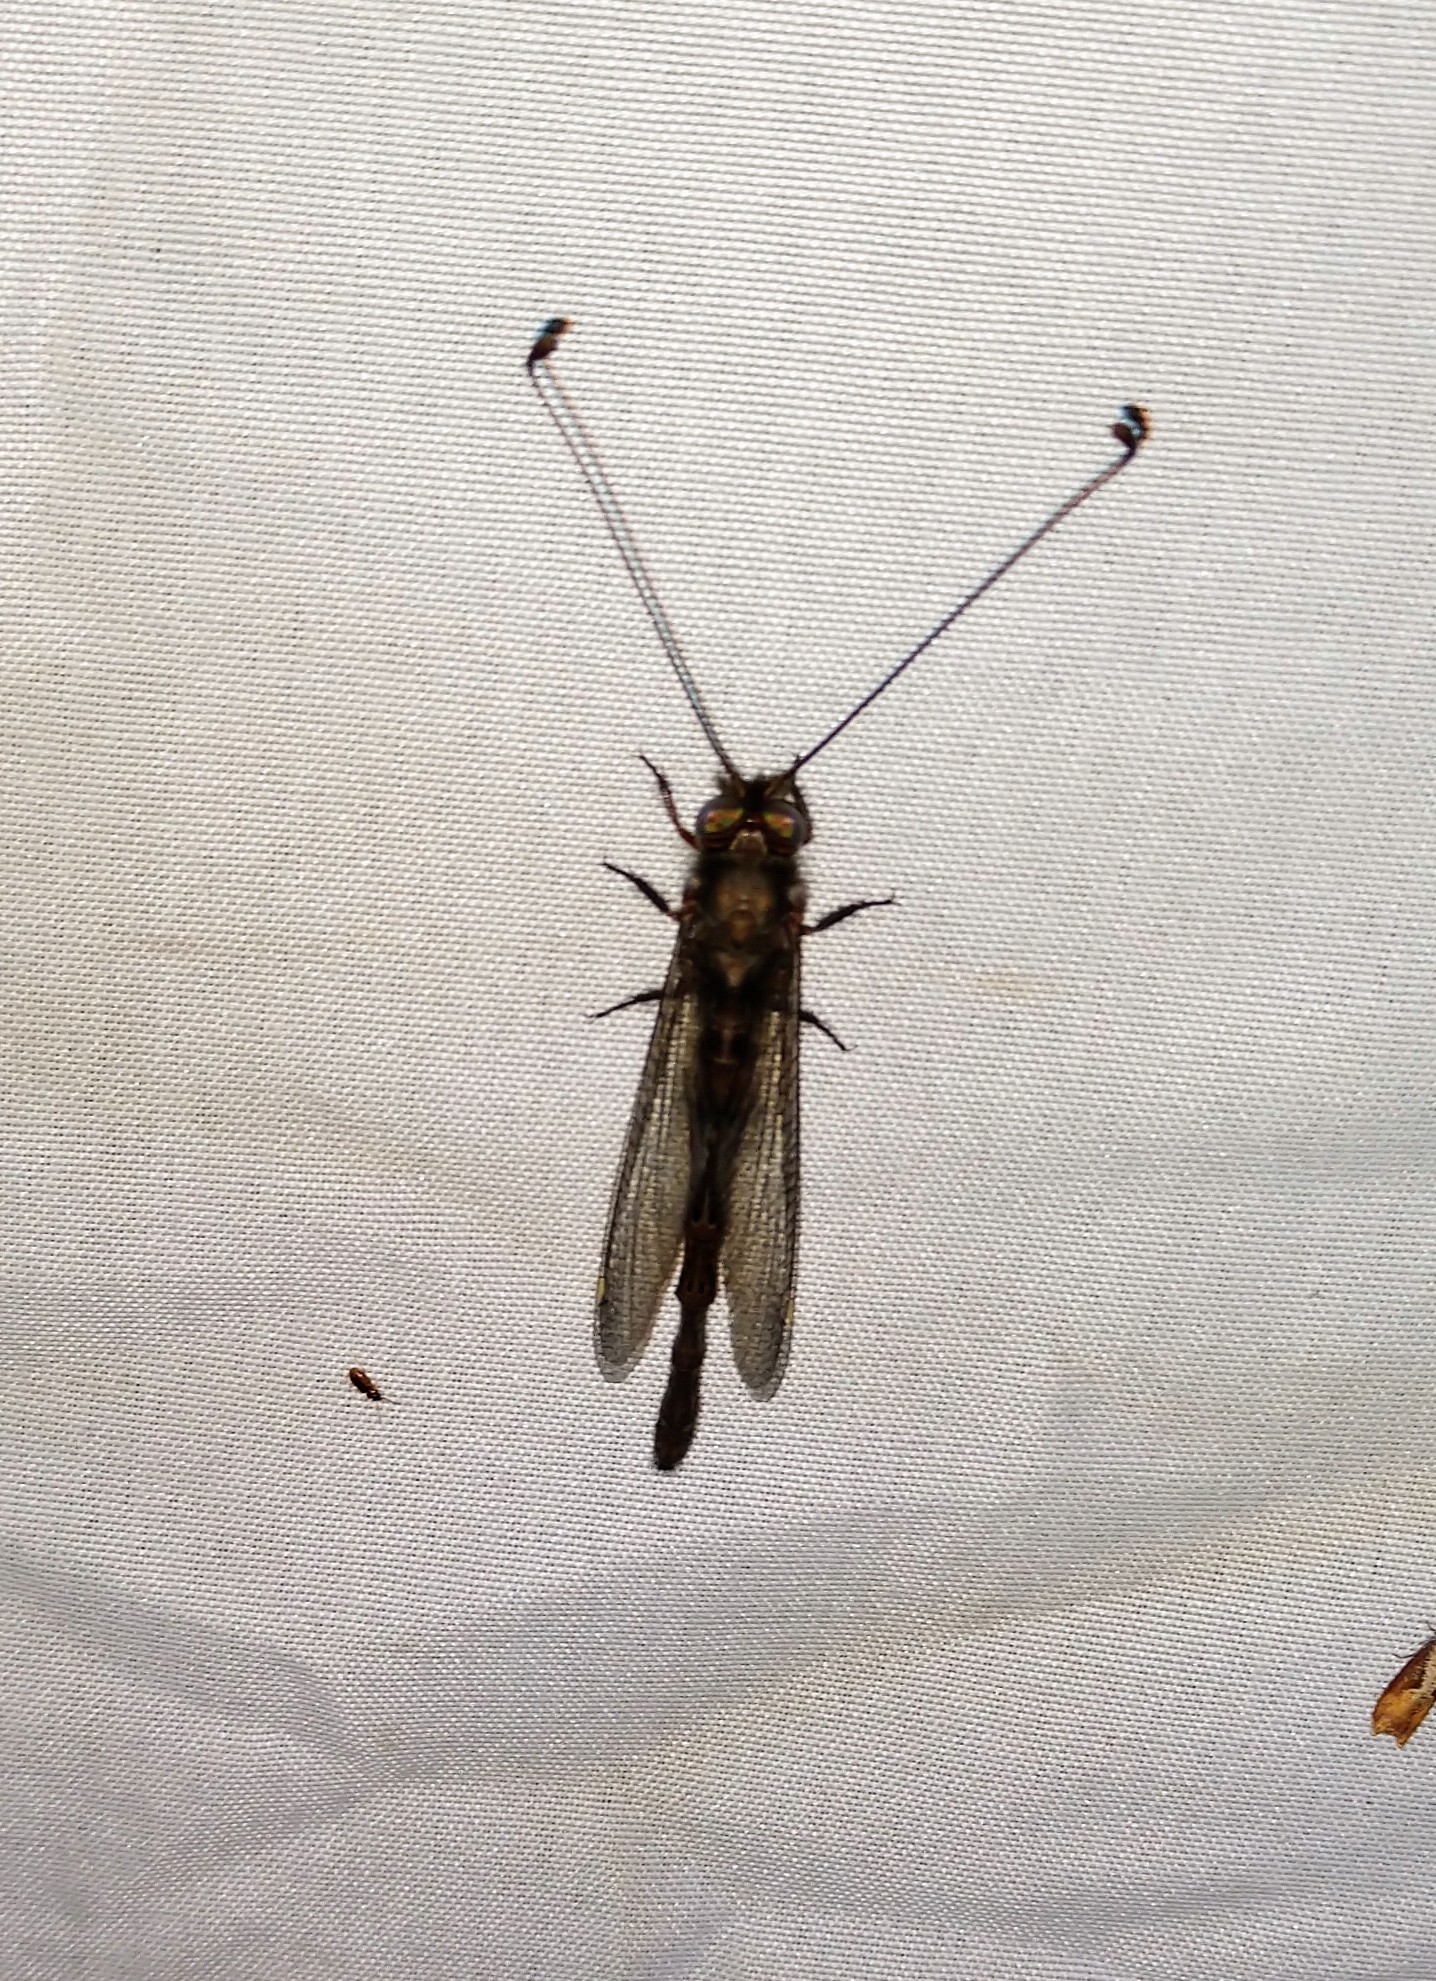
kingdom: Animalia
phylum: Arthropoda
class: Insecta
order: Neuroptera
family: Ascalaphidae
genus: Ululodes
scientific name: Ululodes quadripunctatus
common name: Four-spotted owlfly
